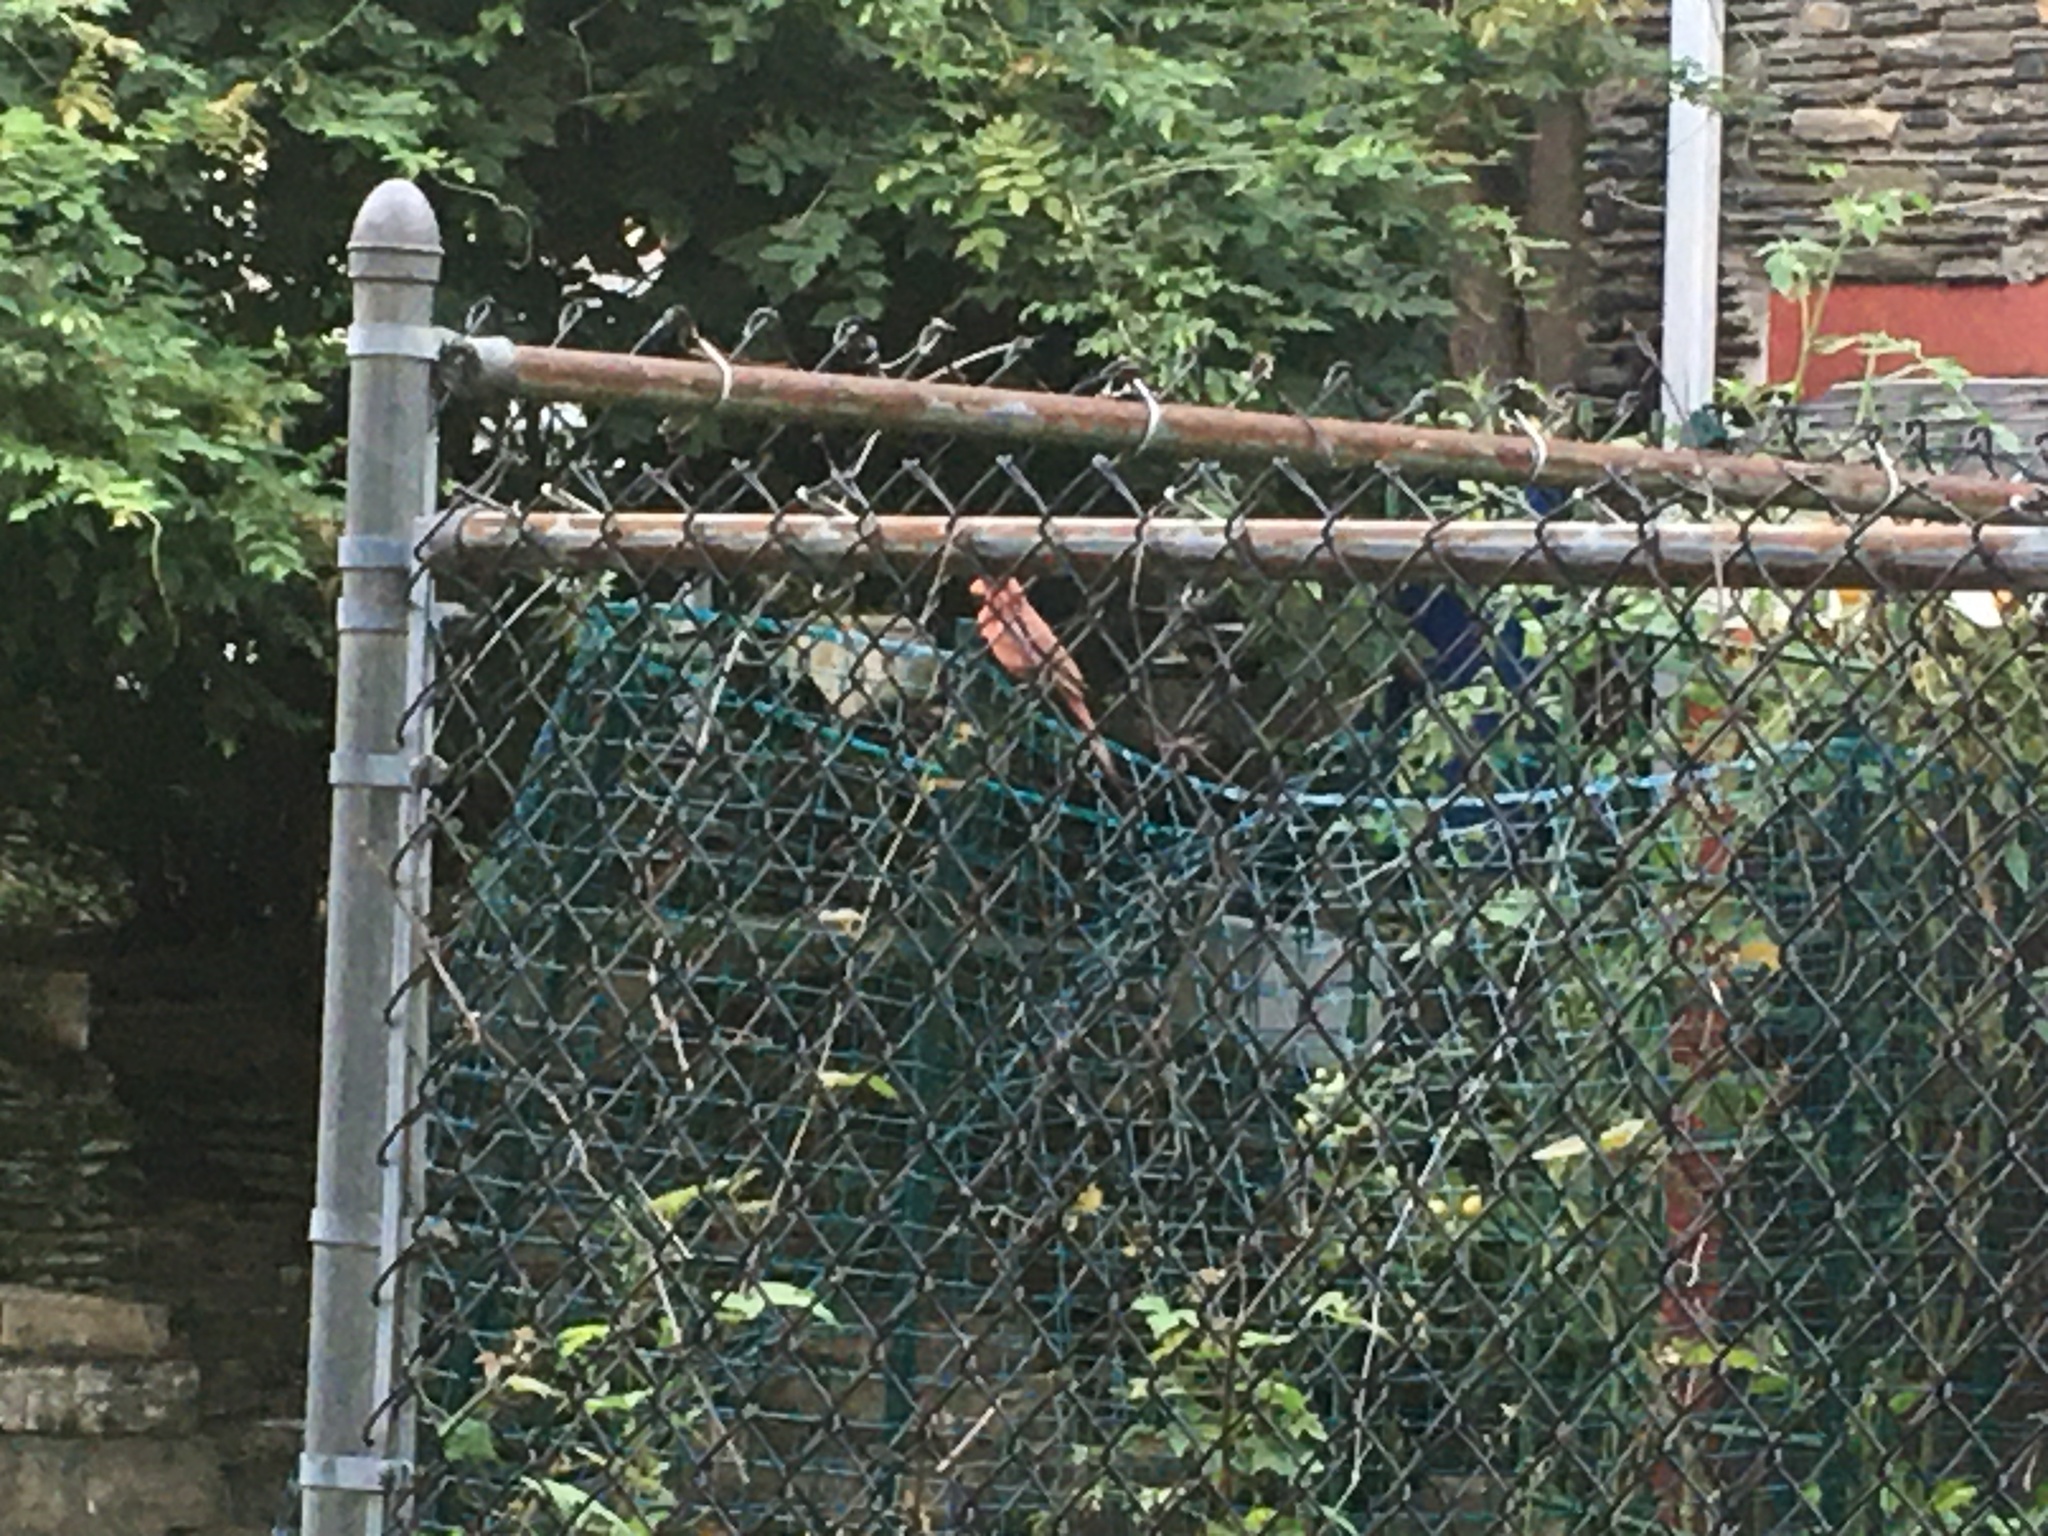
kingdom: Animalia
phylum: Chordata
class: Aves
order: Passeriformes
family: Cardinalidae
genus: Cardinalis
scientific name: Cardinalis cardinalis
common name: Northern cardinal
